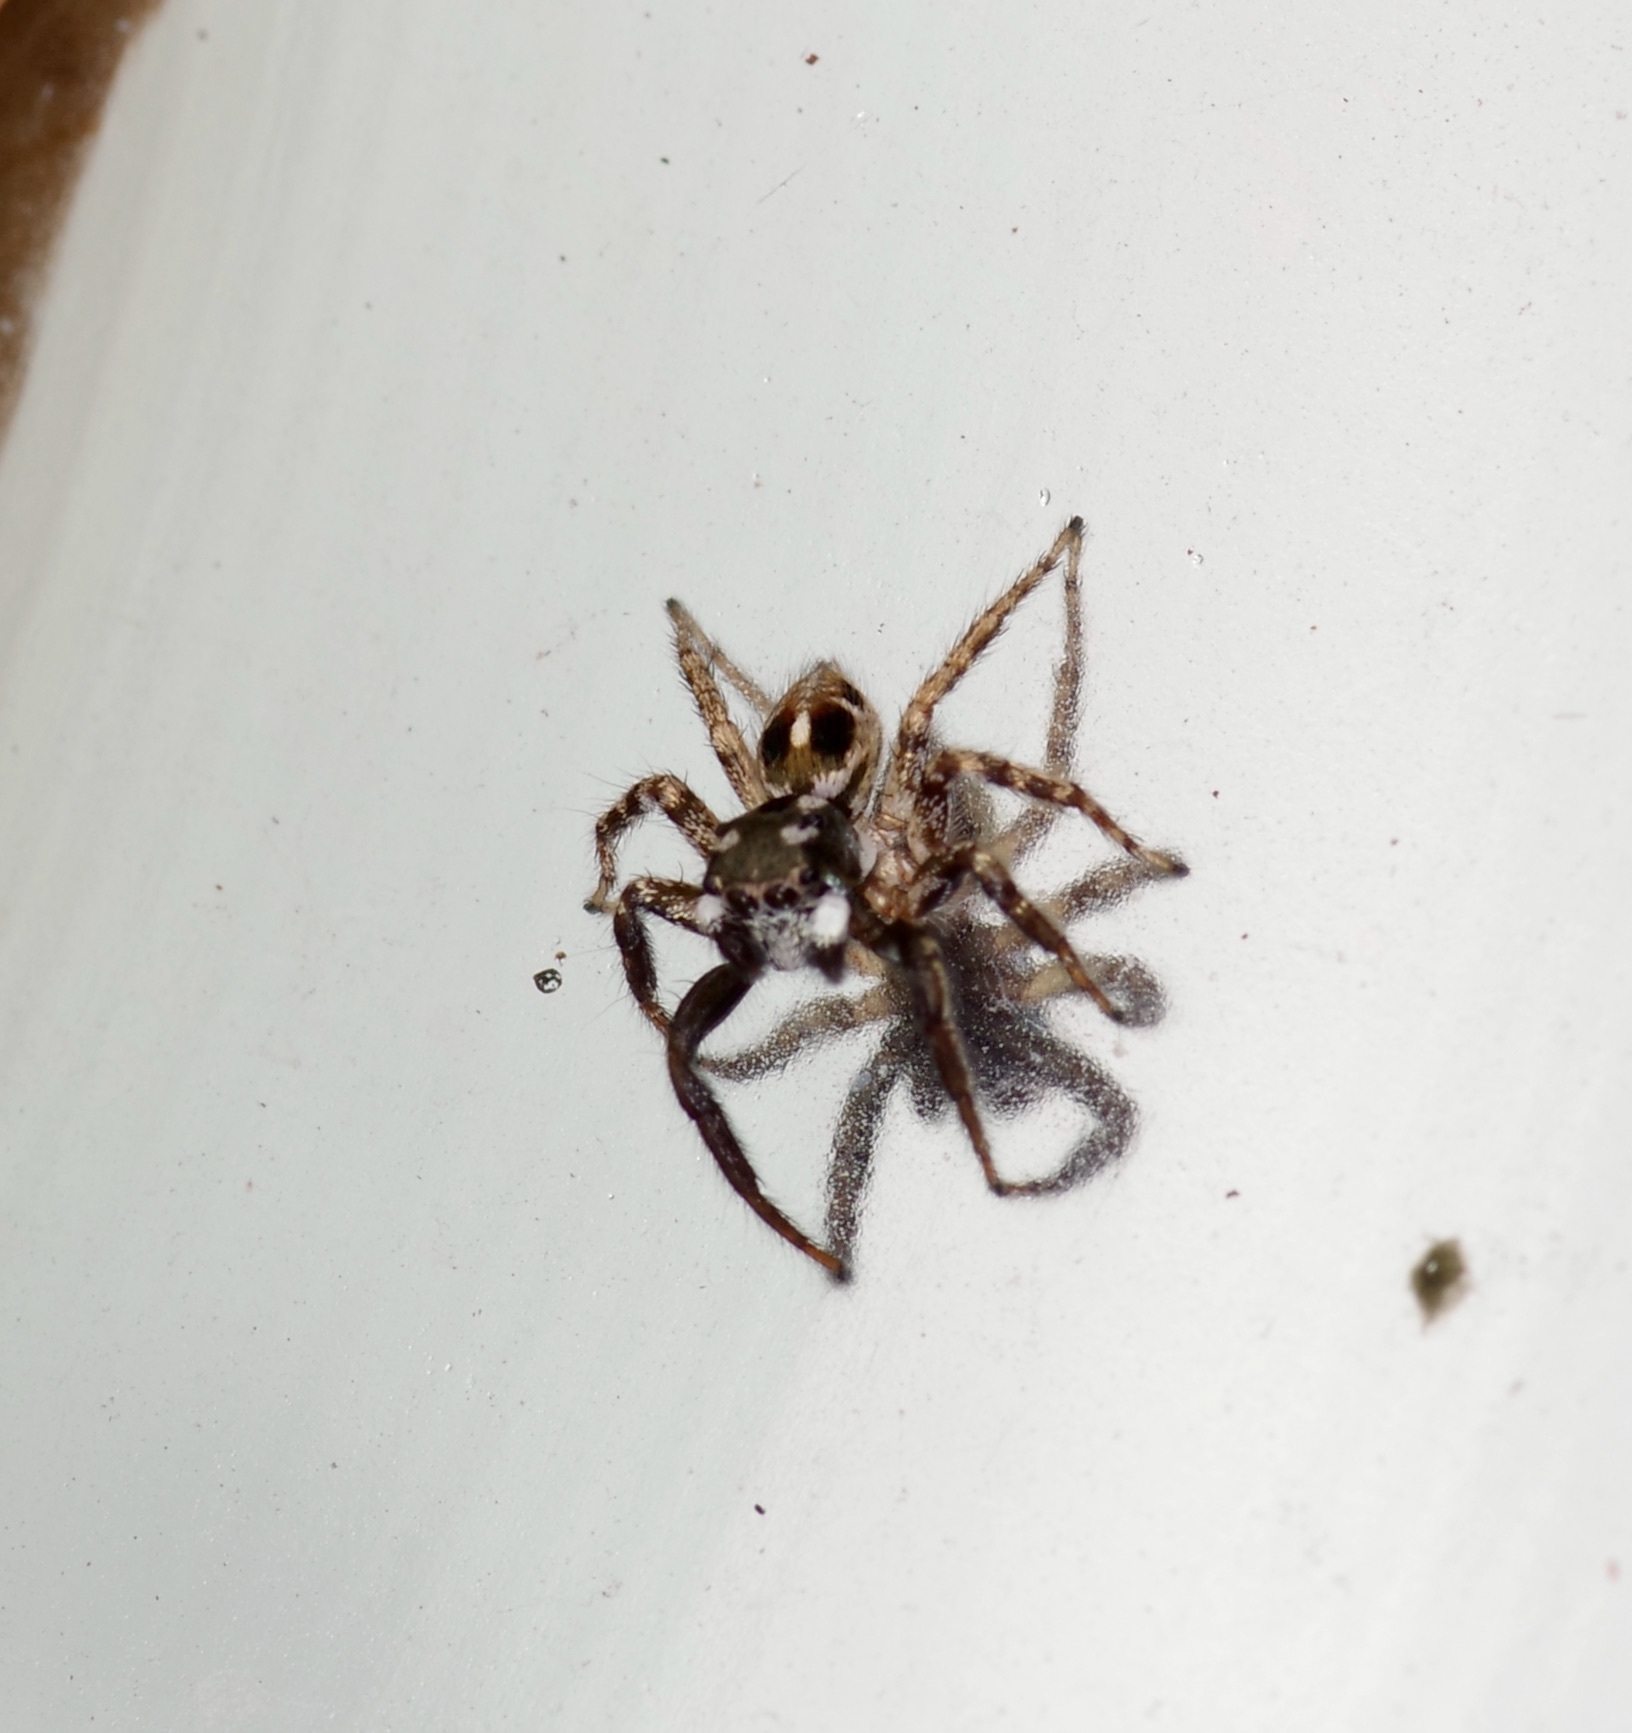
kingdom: Animalia
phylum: Arthropoda
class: Arachnida
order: Araneae
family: Salticidae
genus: Anasaitis
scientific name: Anasaitis canosa
